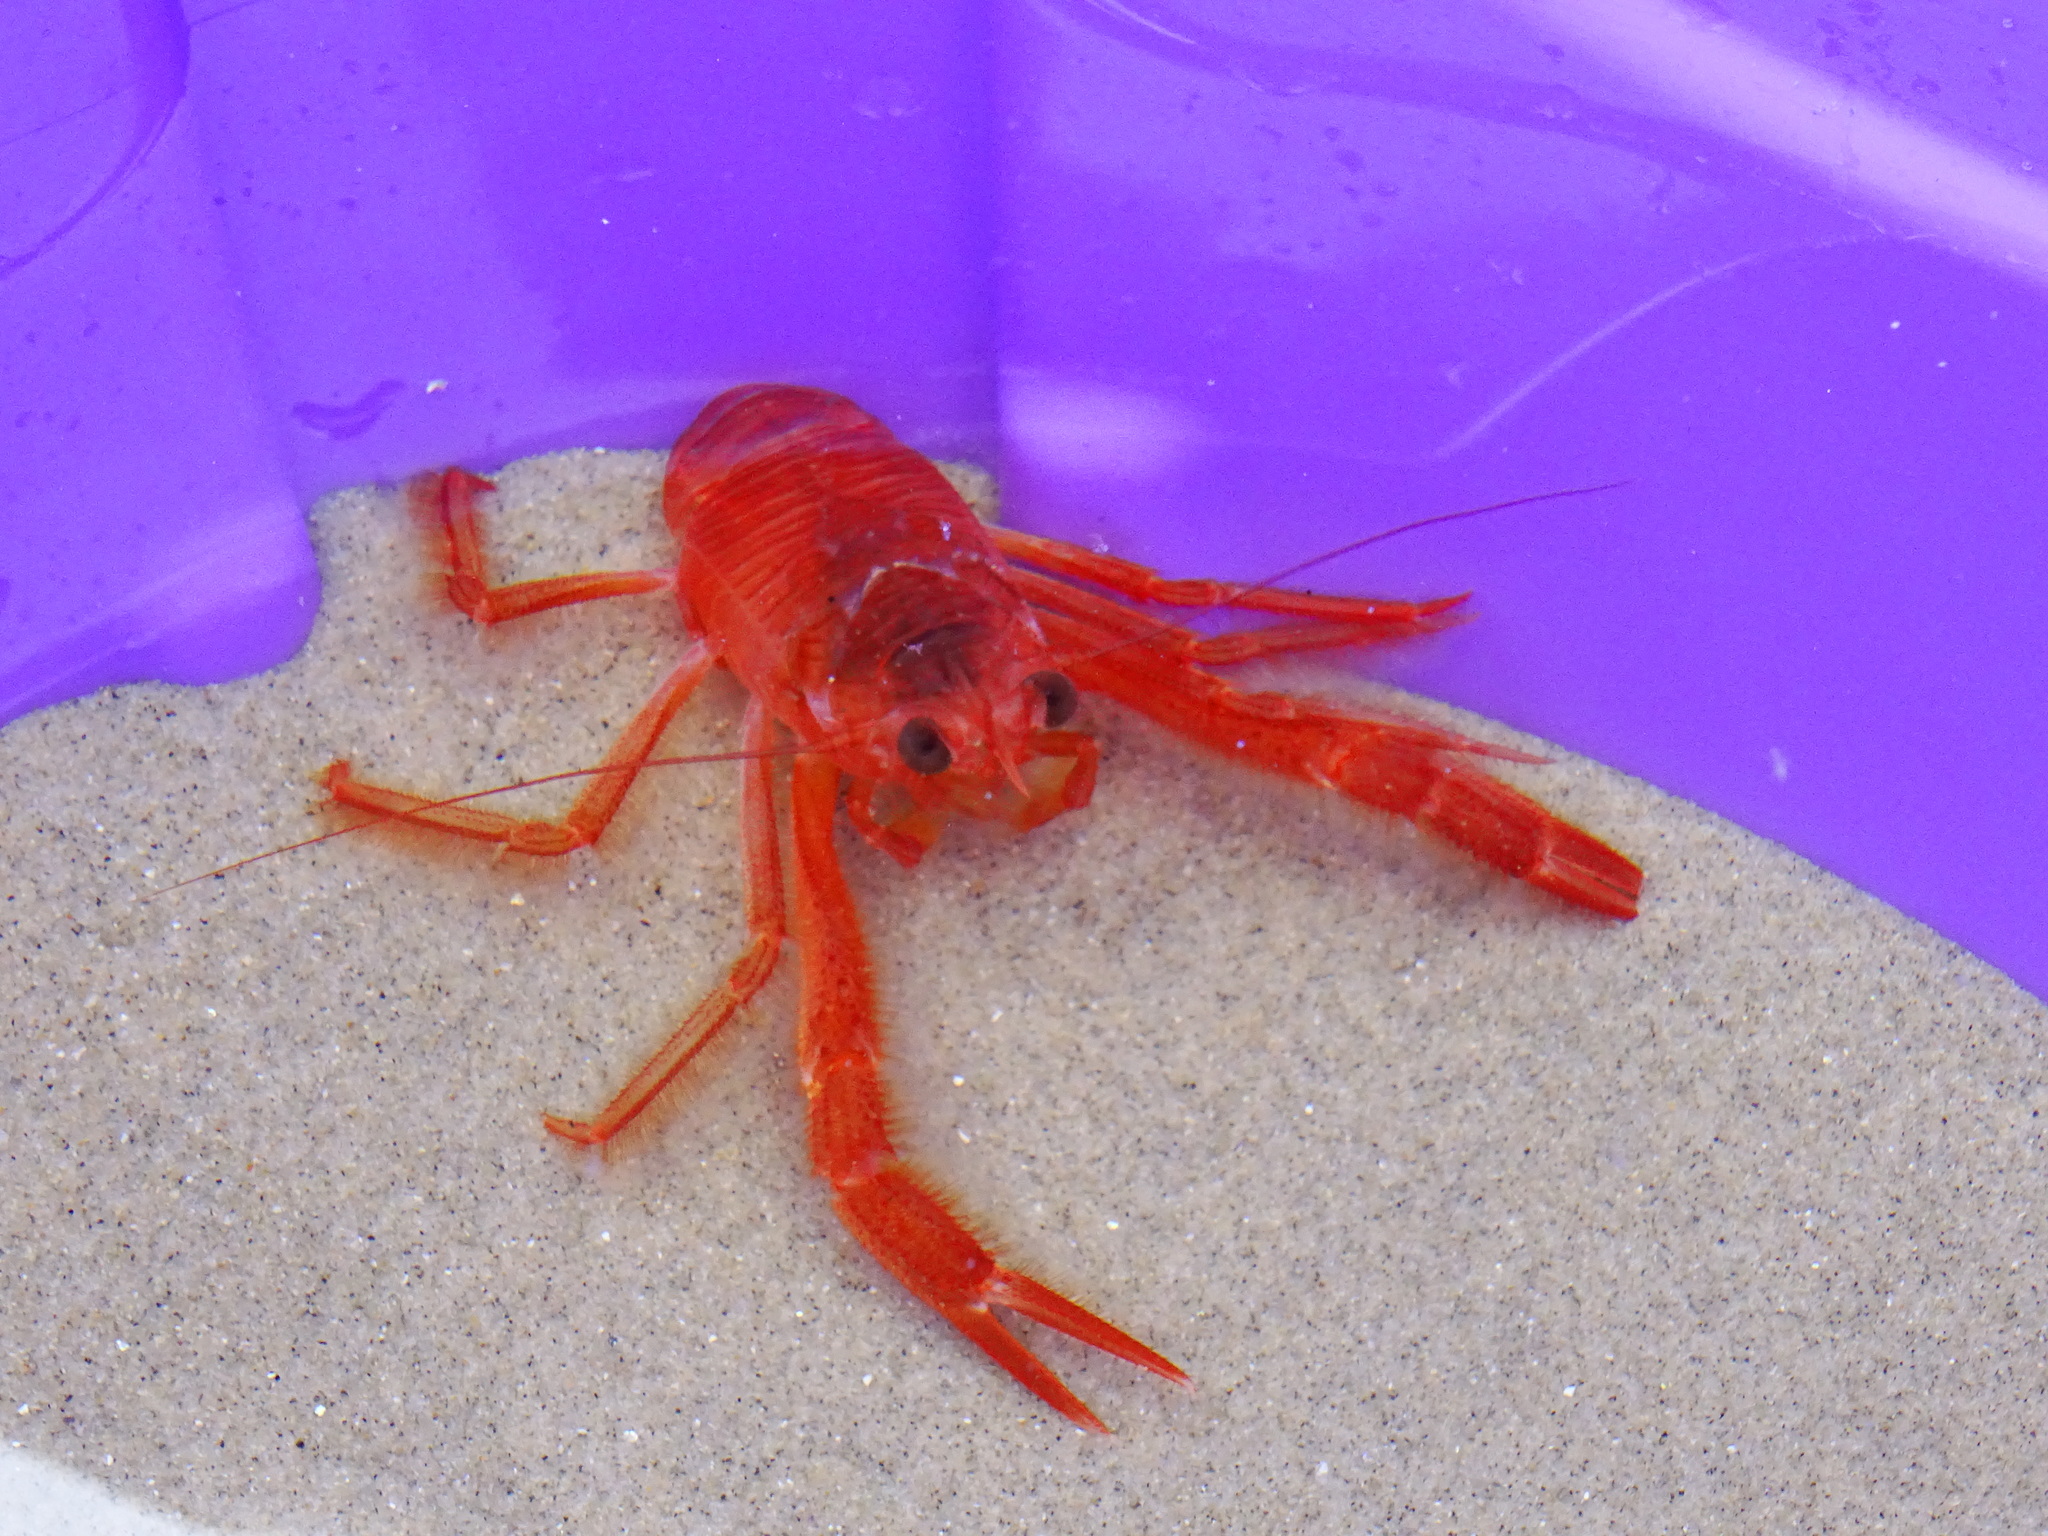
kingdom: Animalia
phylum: Arthropoda
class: Malacostraca
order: Decapoda
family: Munididae
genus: Grimothea
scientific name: Grimothea planipes
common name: Pelagic red crab
